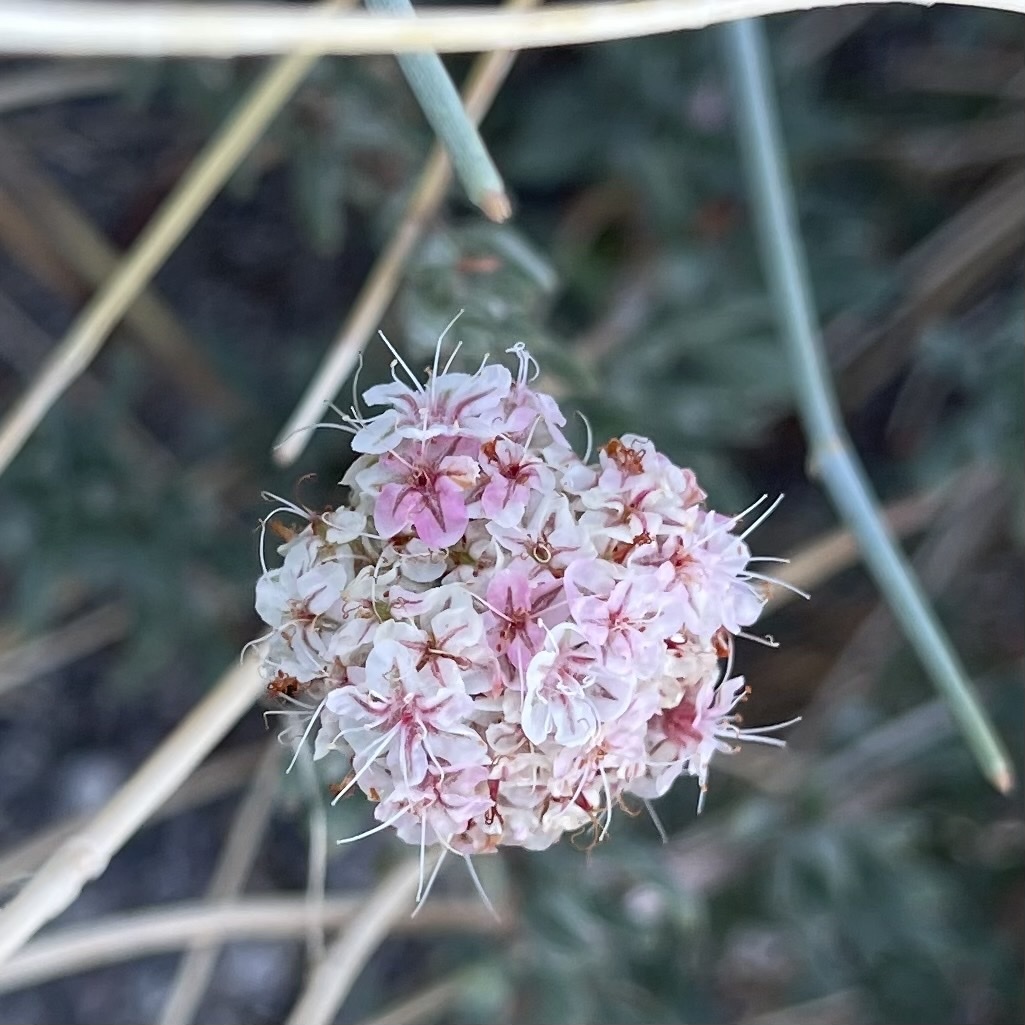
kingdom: Plantae
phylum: Tracheophyta
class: Magnoliopsida
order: Caryophyllales
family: Polygonaceae
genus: Eriogonum
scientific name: Eriogonum fasciculatum
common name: California wild buckwheat
